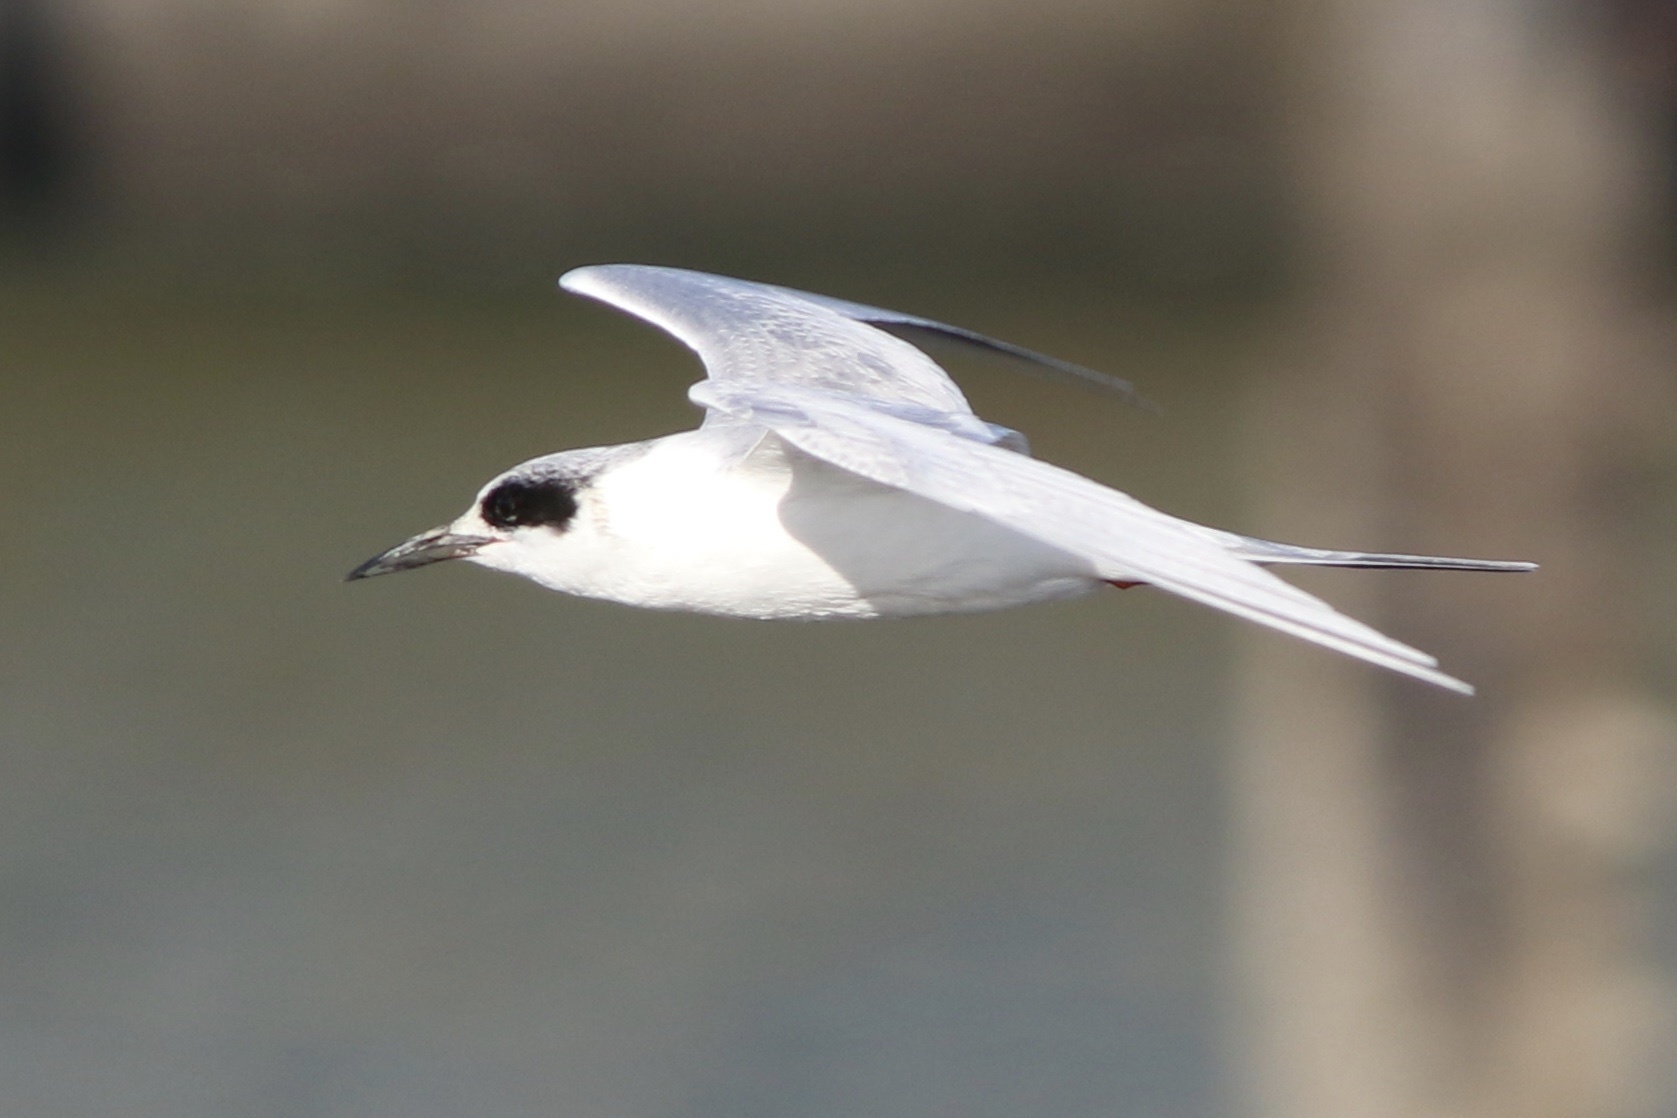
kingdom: Animalia
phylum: Chordata
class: Aves
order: Charadriiformes
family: Laridae
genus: Sterna
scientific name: Sterna forsteri
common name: Forster's tern
